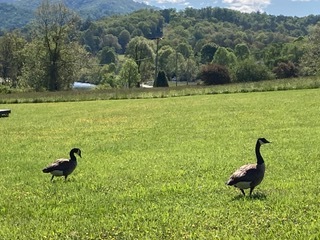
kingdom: Animalia
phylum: Chordata
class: Aves
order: Anseriformes
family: Anatidae
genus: Branta
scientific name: Branta canadensis
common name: Canada goose
